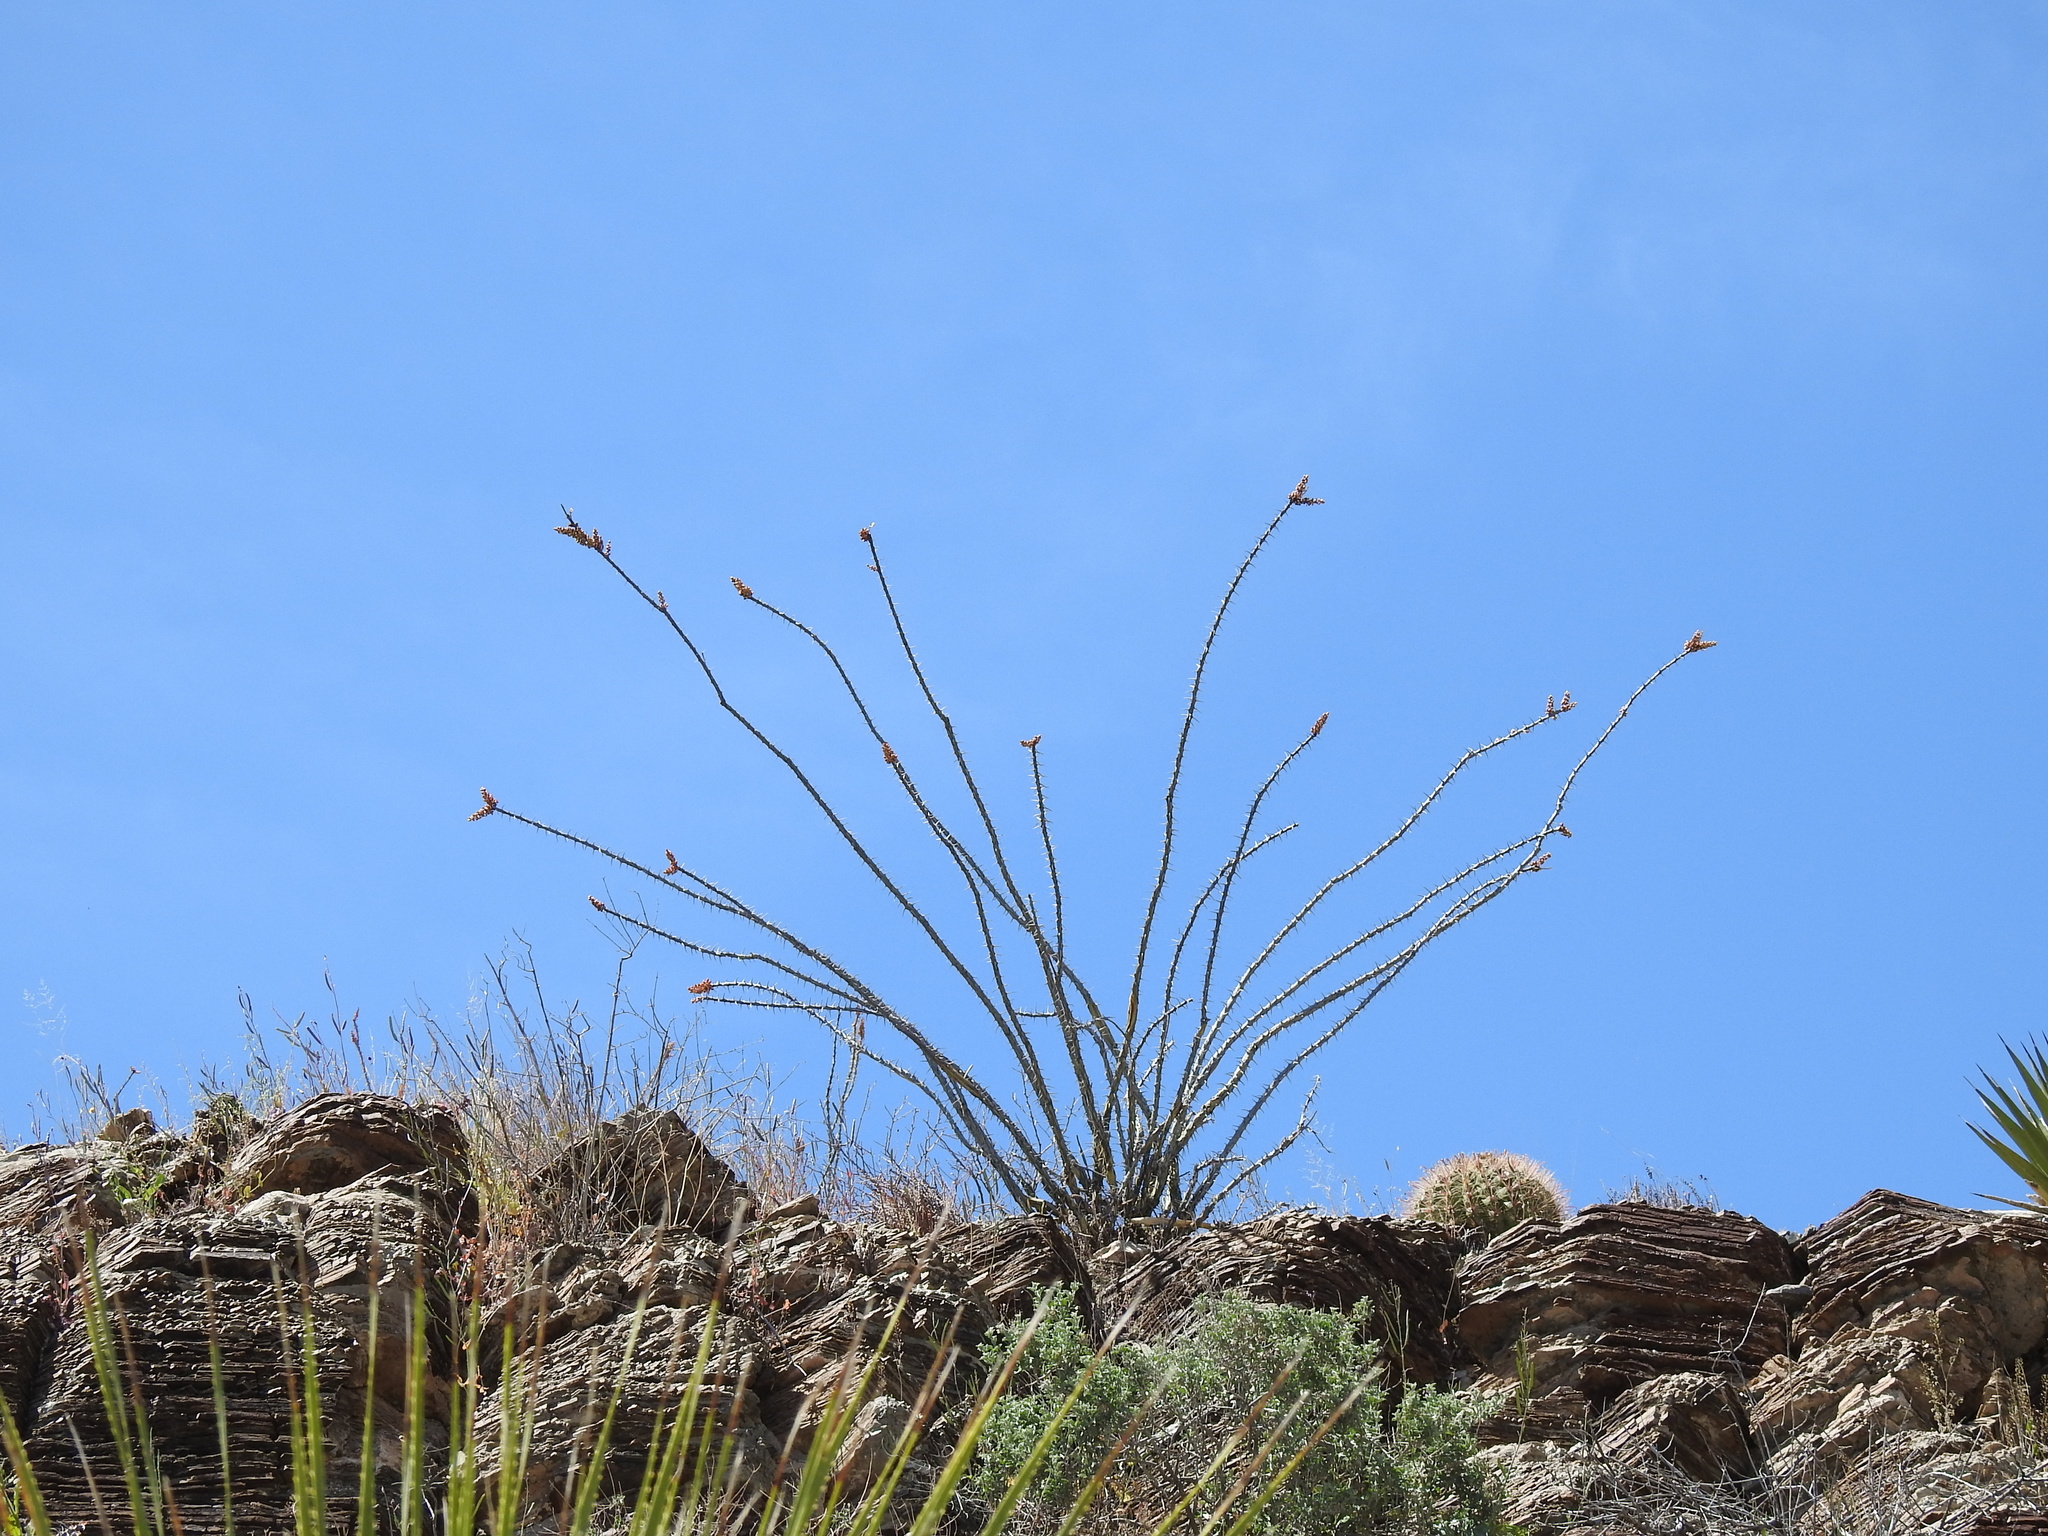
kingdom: Plantae
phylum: Tracheophyta
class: Magnoliopsida
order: Ericales
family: Fouquieriaceae
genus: Fouquieria
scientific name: Fouquieria splendens
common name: Vine-cactus
